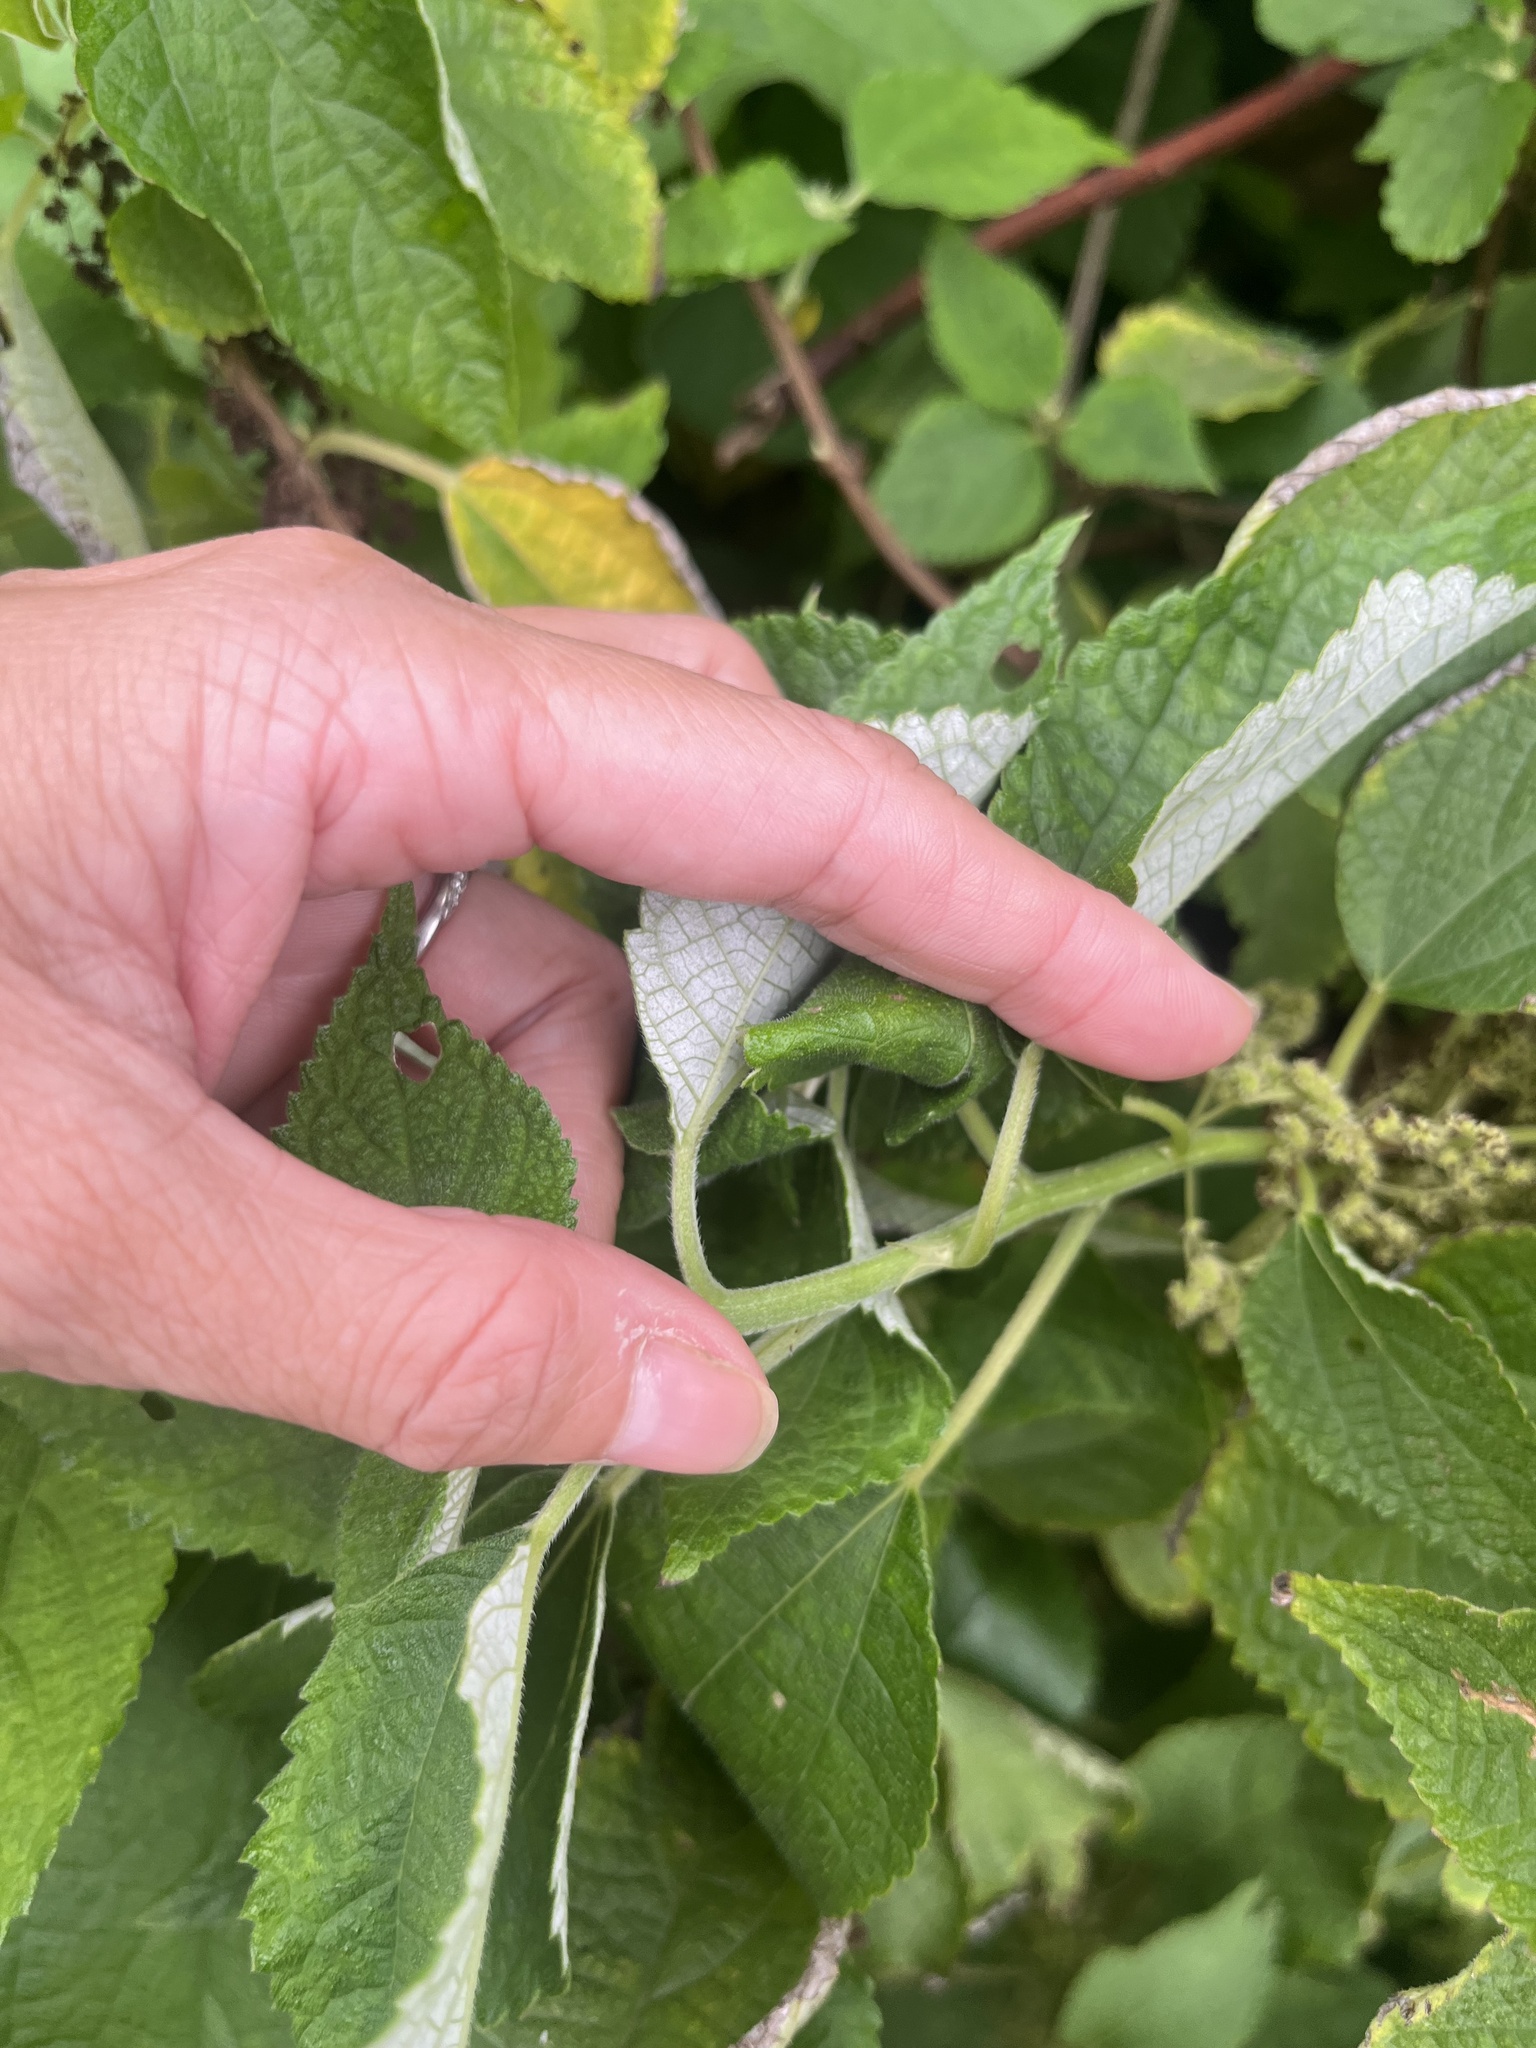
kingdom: Plantae
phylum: Tracheophyta
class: Magnoliopsida
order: Rosales
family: Urticaceae
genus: Boehmeria
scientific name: Boehmeria nivea
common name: Ramie chinese grass
